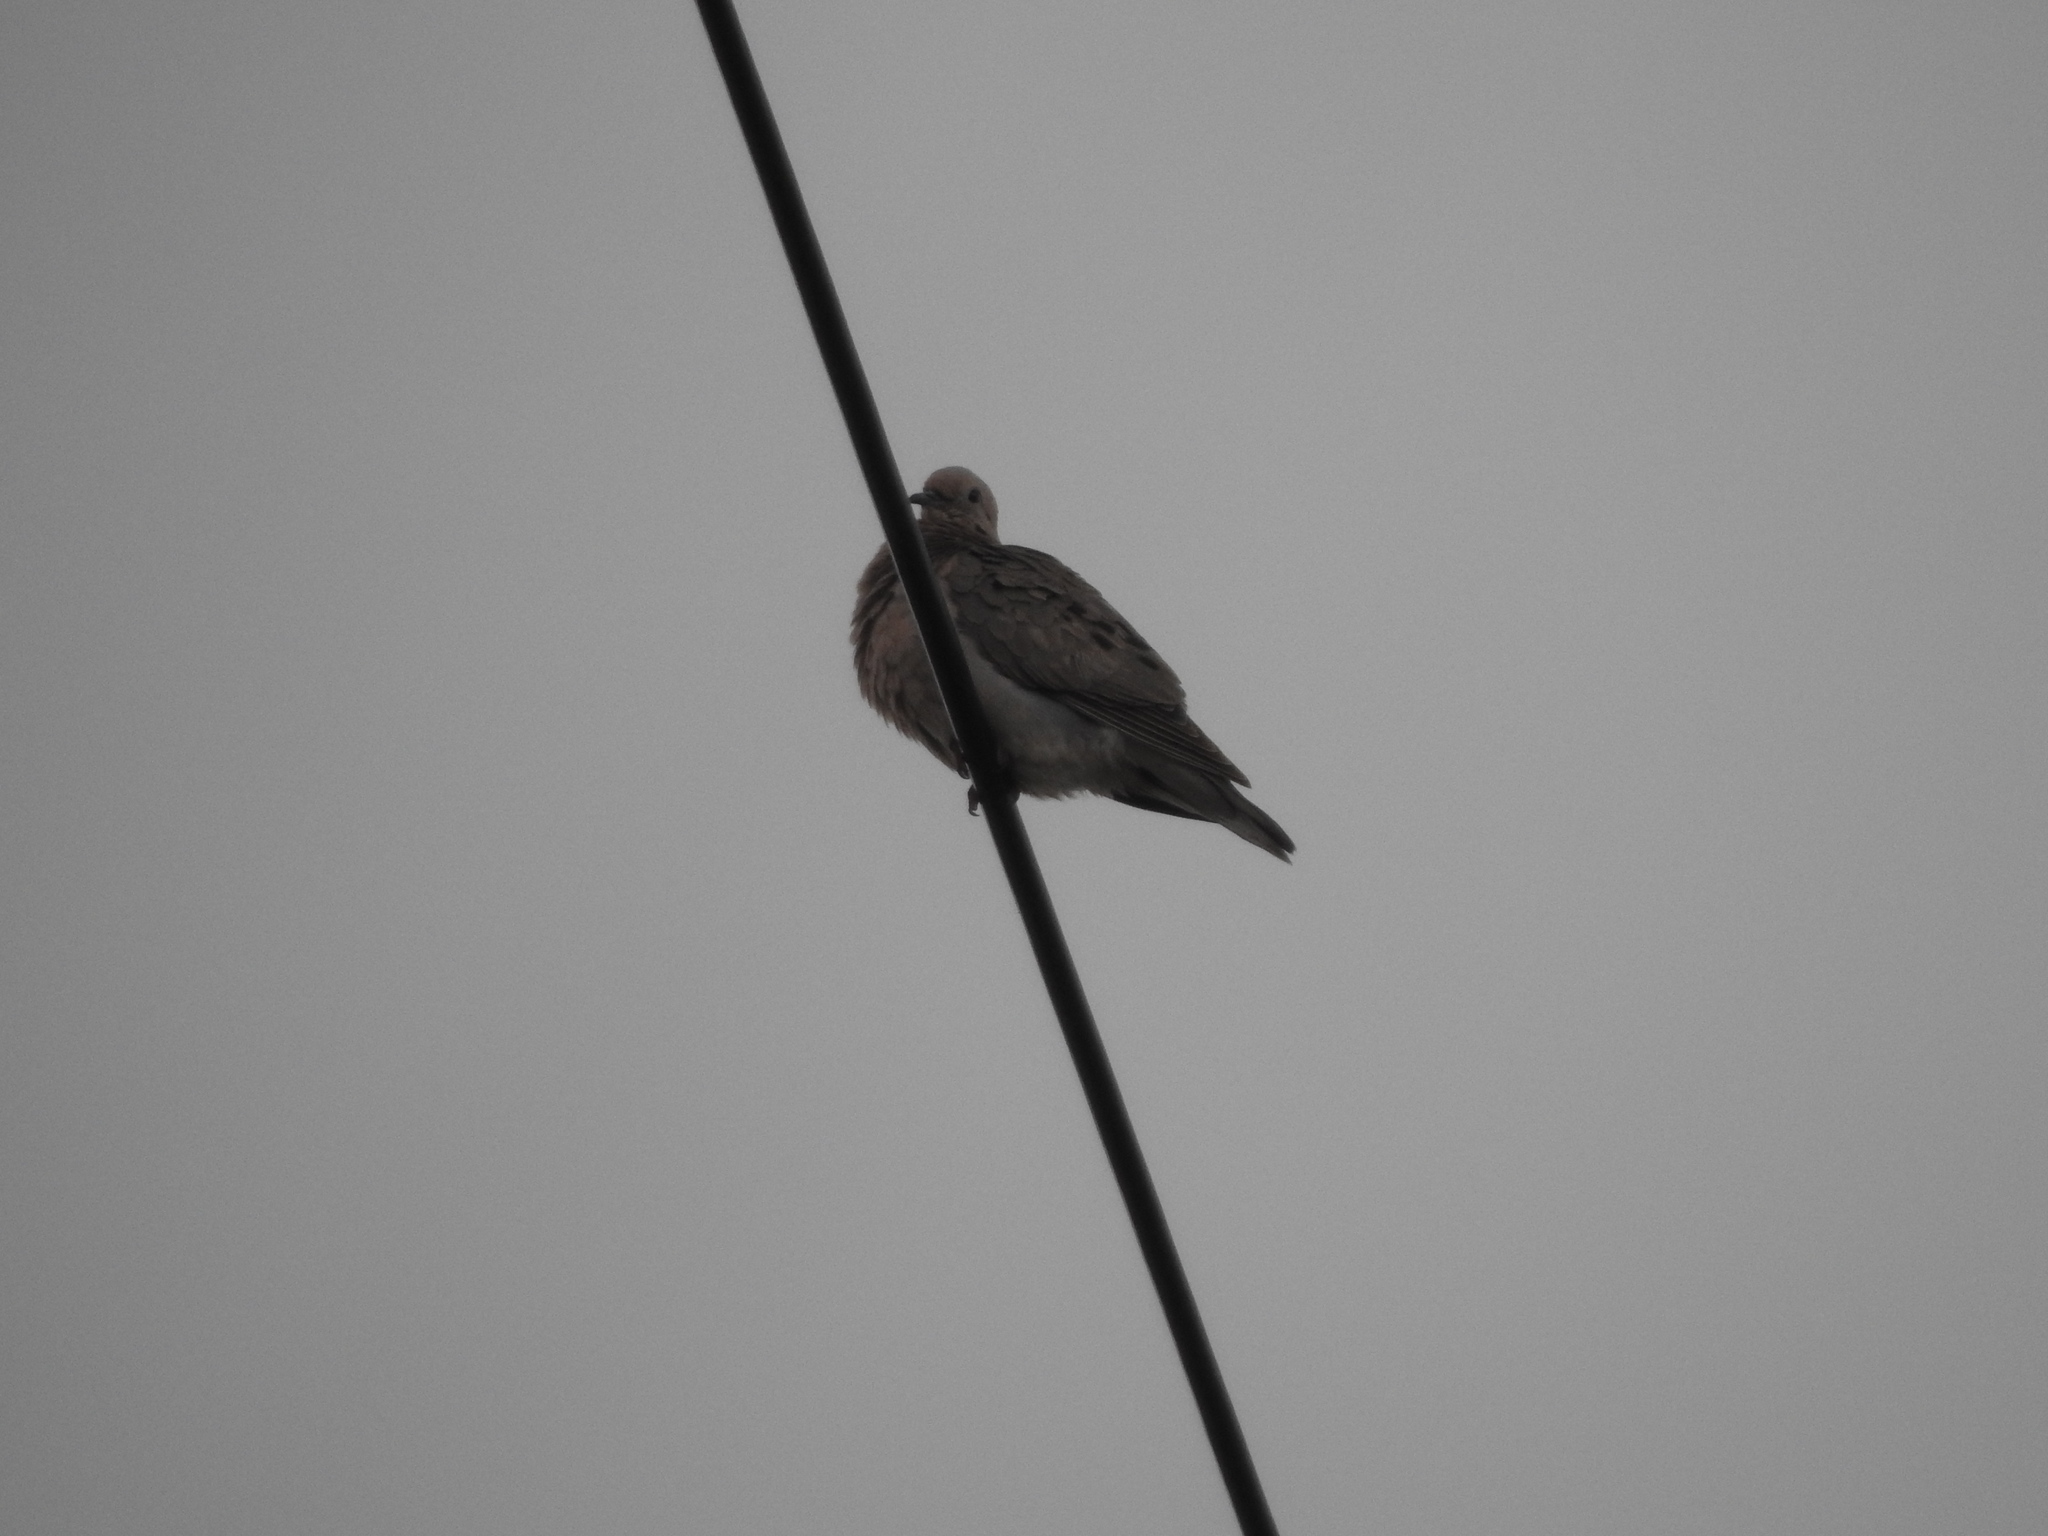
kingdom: Animalia
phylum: Chordata
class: Aves
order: Columbiformes
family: Columbidae
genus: Zenaida
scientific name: Zenaida auriculata
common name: Eared dove
